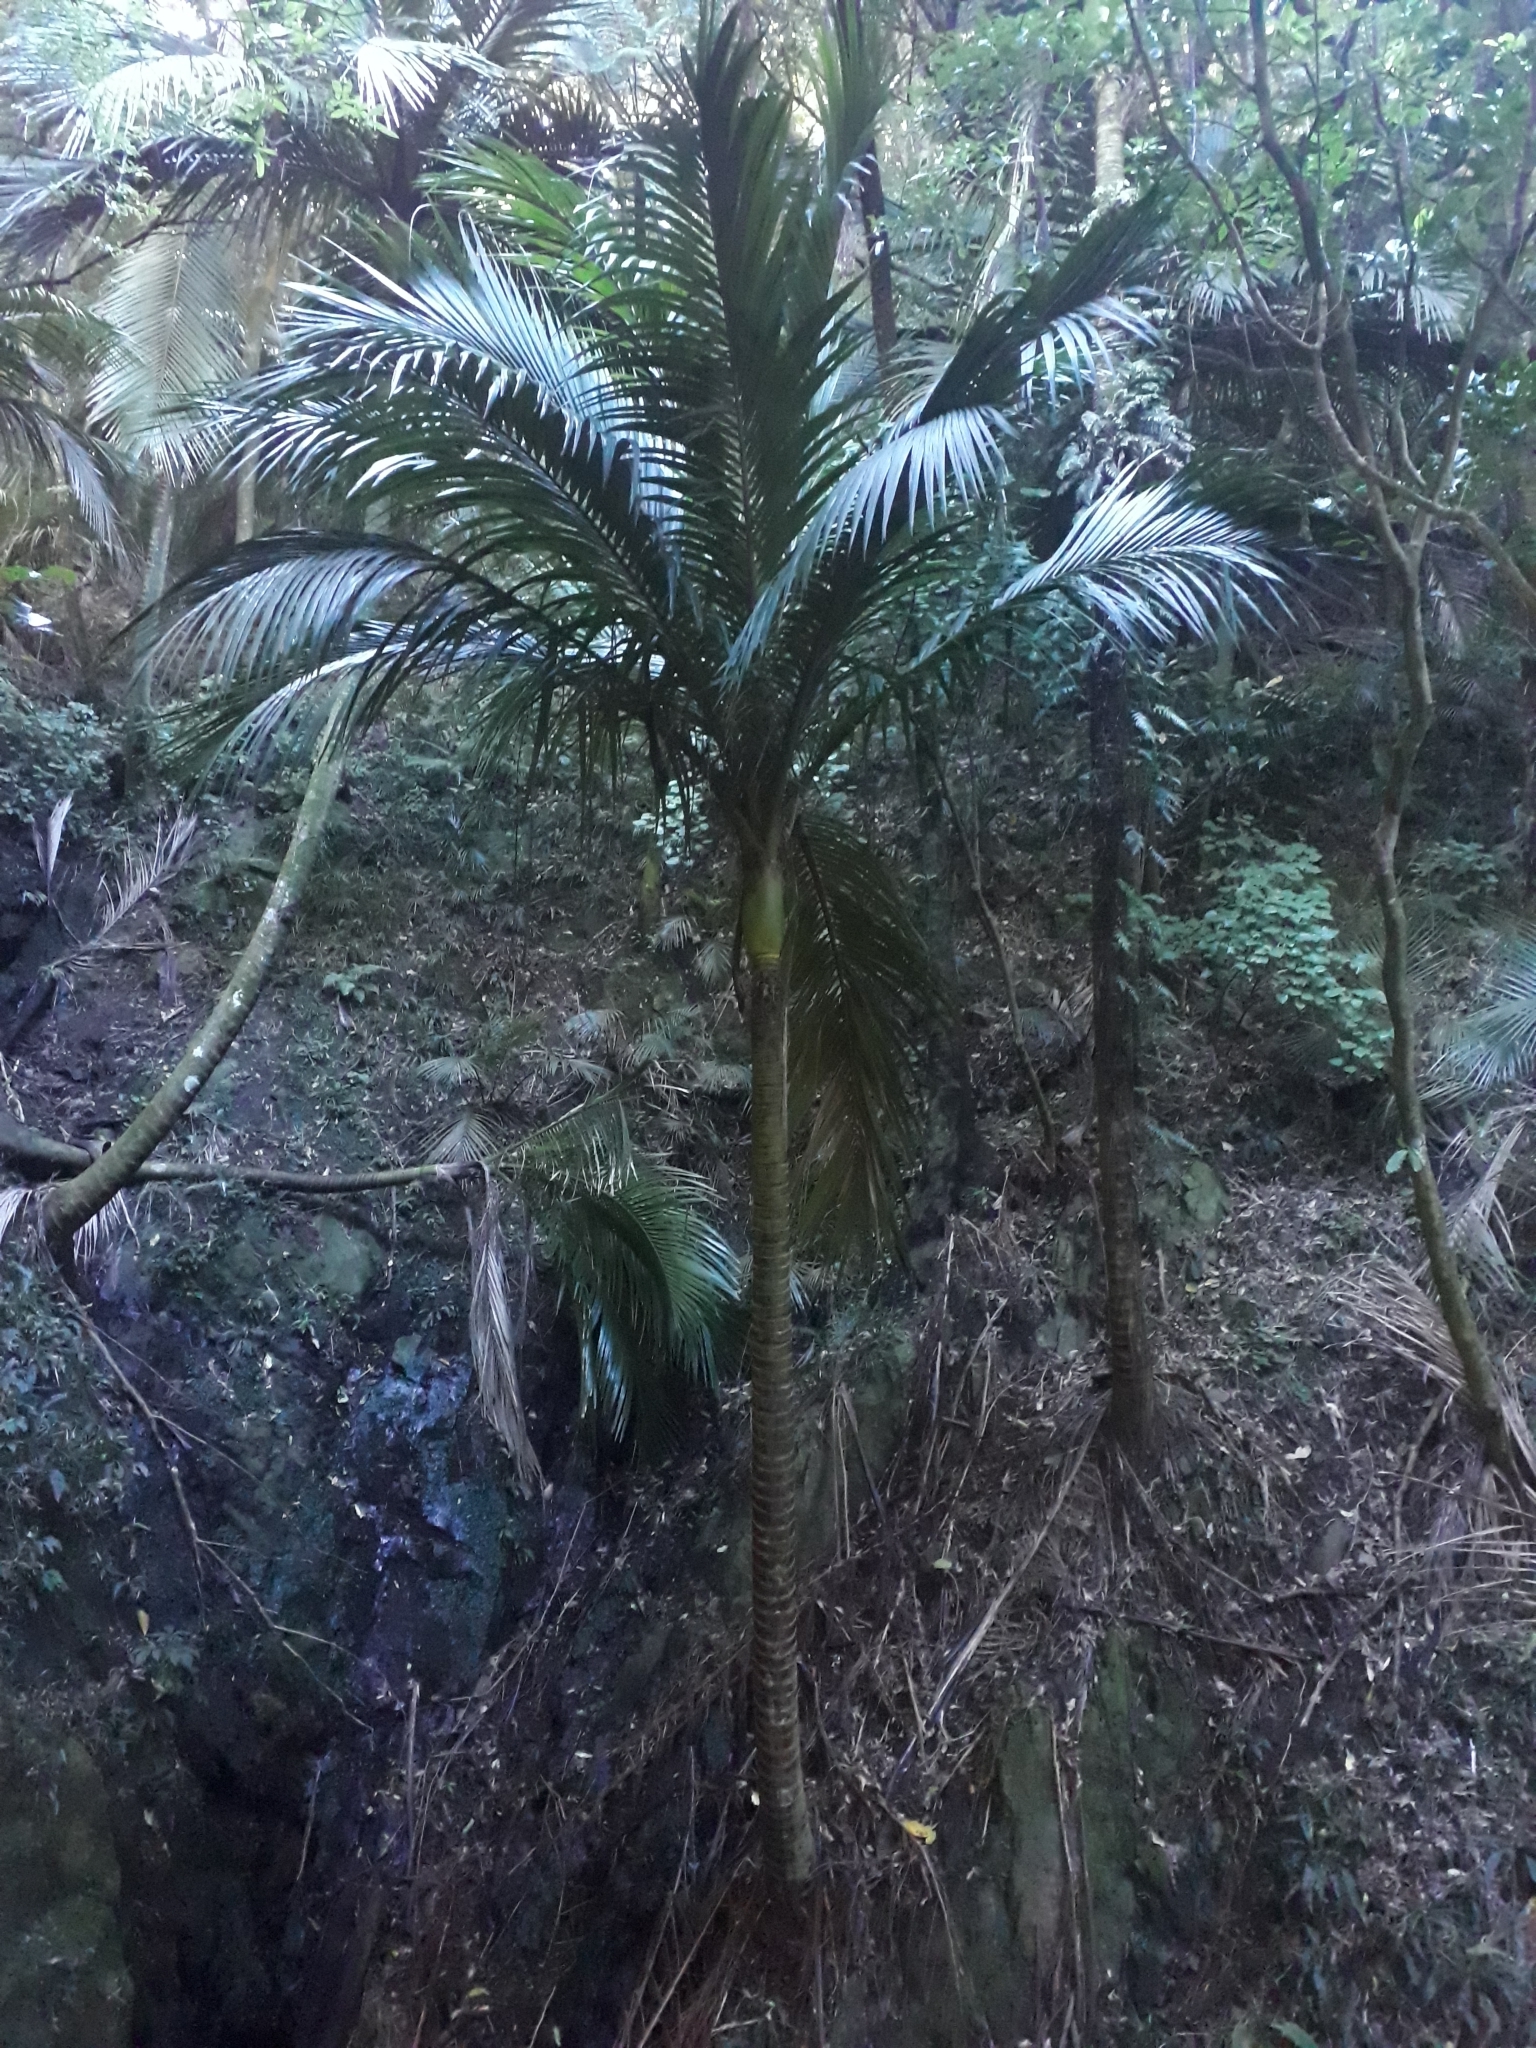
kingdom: Plantae
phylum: Tracheophyta
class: Liliopsida
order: Arecales
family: Arecaceae
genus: Rhopalostylis
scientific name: Rhopalostylis sapida
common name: Feather-duster palm
